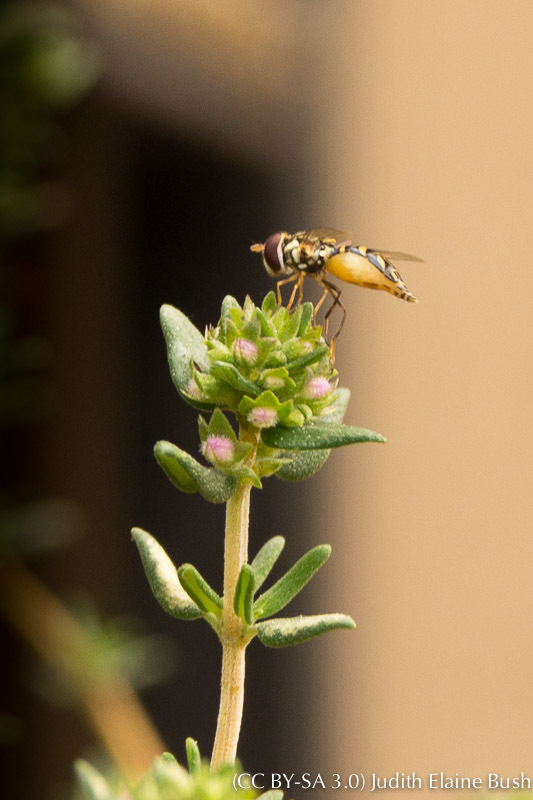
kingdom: Animalia
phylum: Arthropoda
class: Insecta
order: Diptera
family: Syrphidae
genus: Allograpta
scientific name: Allograpta obliqua
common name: Common oblique syrphid
